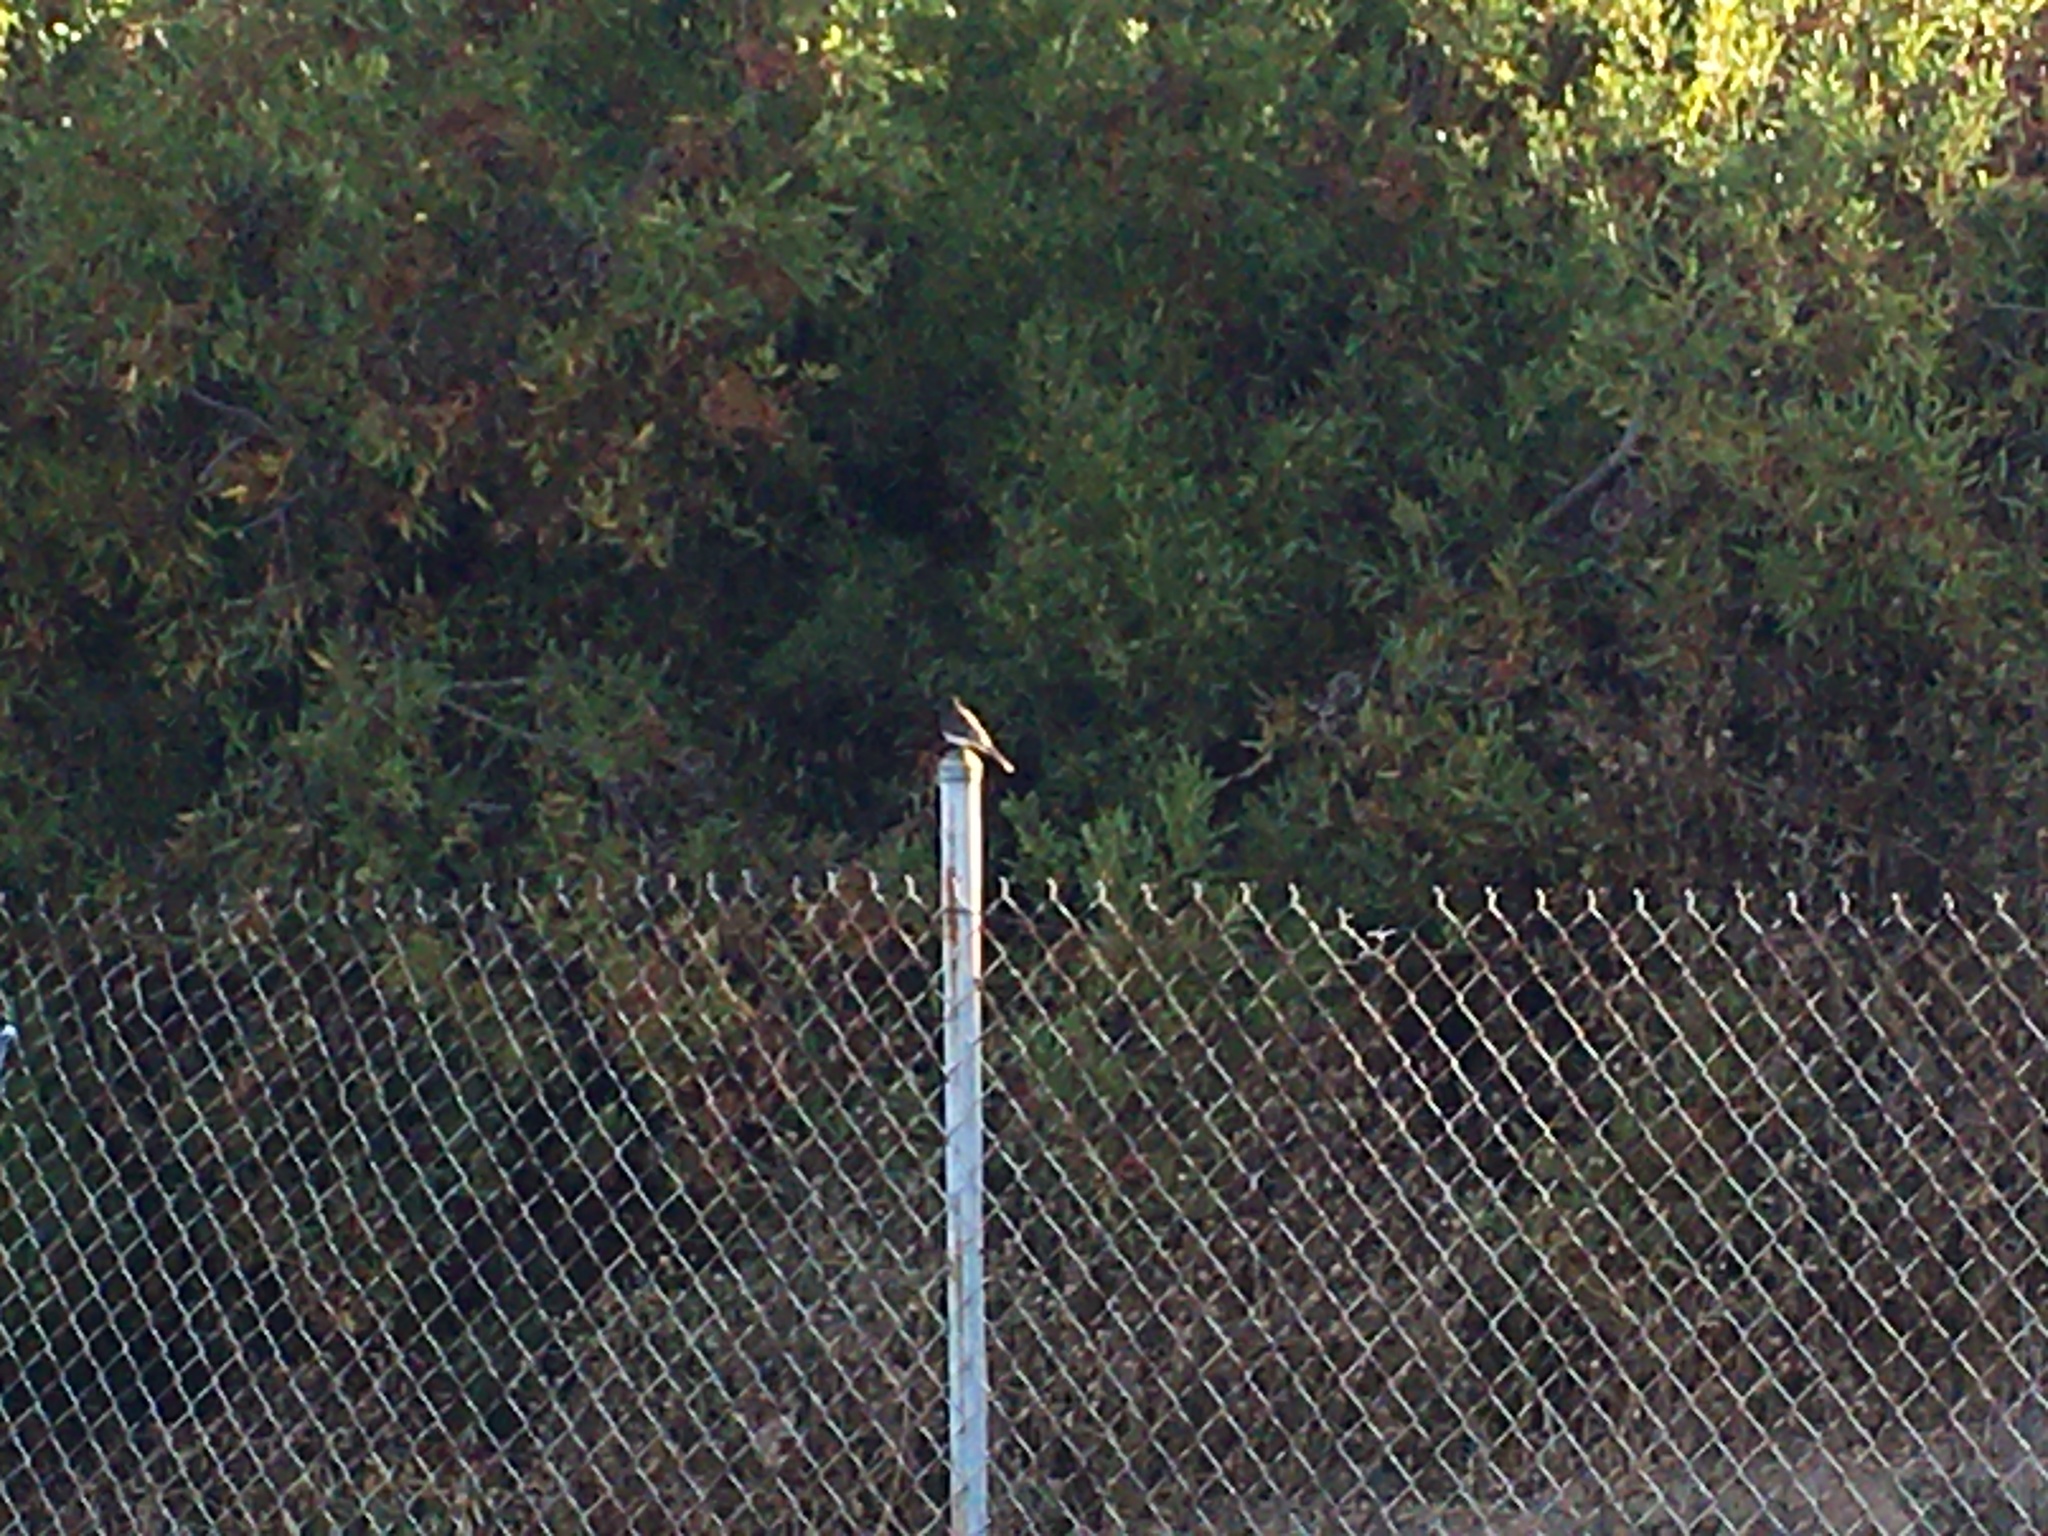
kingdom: Animalia
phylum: Chordata
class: Aves
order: Passeriformes
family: Tyrannidae
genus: Sayornis
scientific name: Sayornis nigricans
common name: Black phoebe
